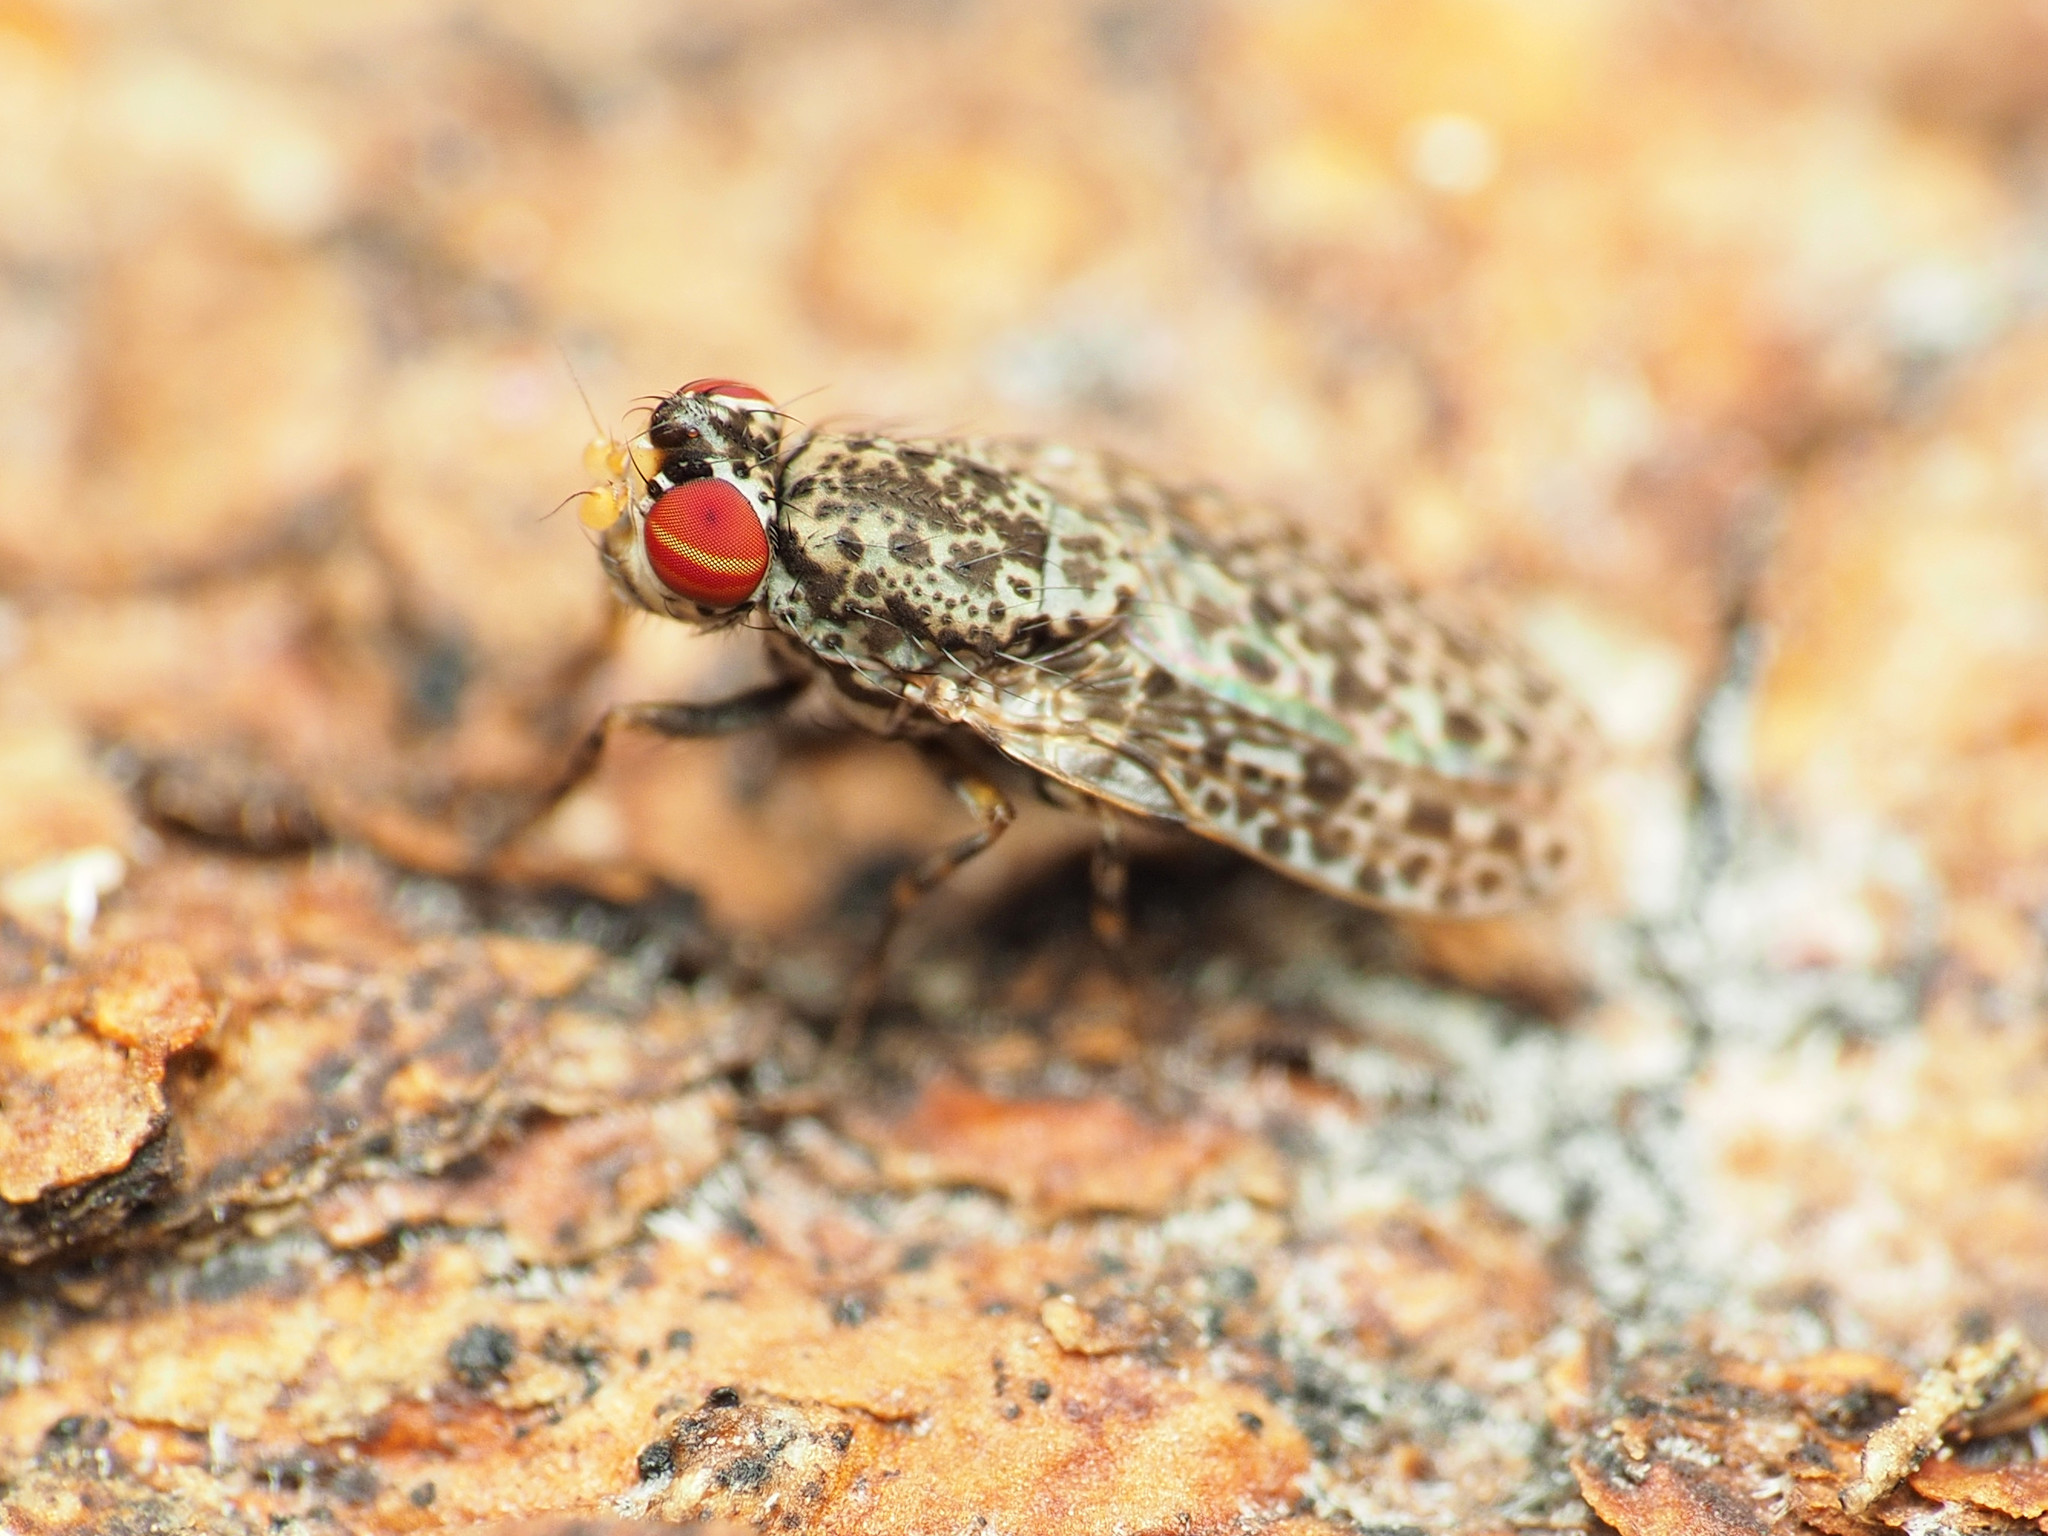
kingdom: Animalia
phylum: Arthropoda
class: Insecta
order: Diptera
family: Odiniidae
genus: Traginops
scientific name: Traginops irroratus
